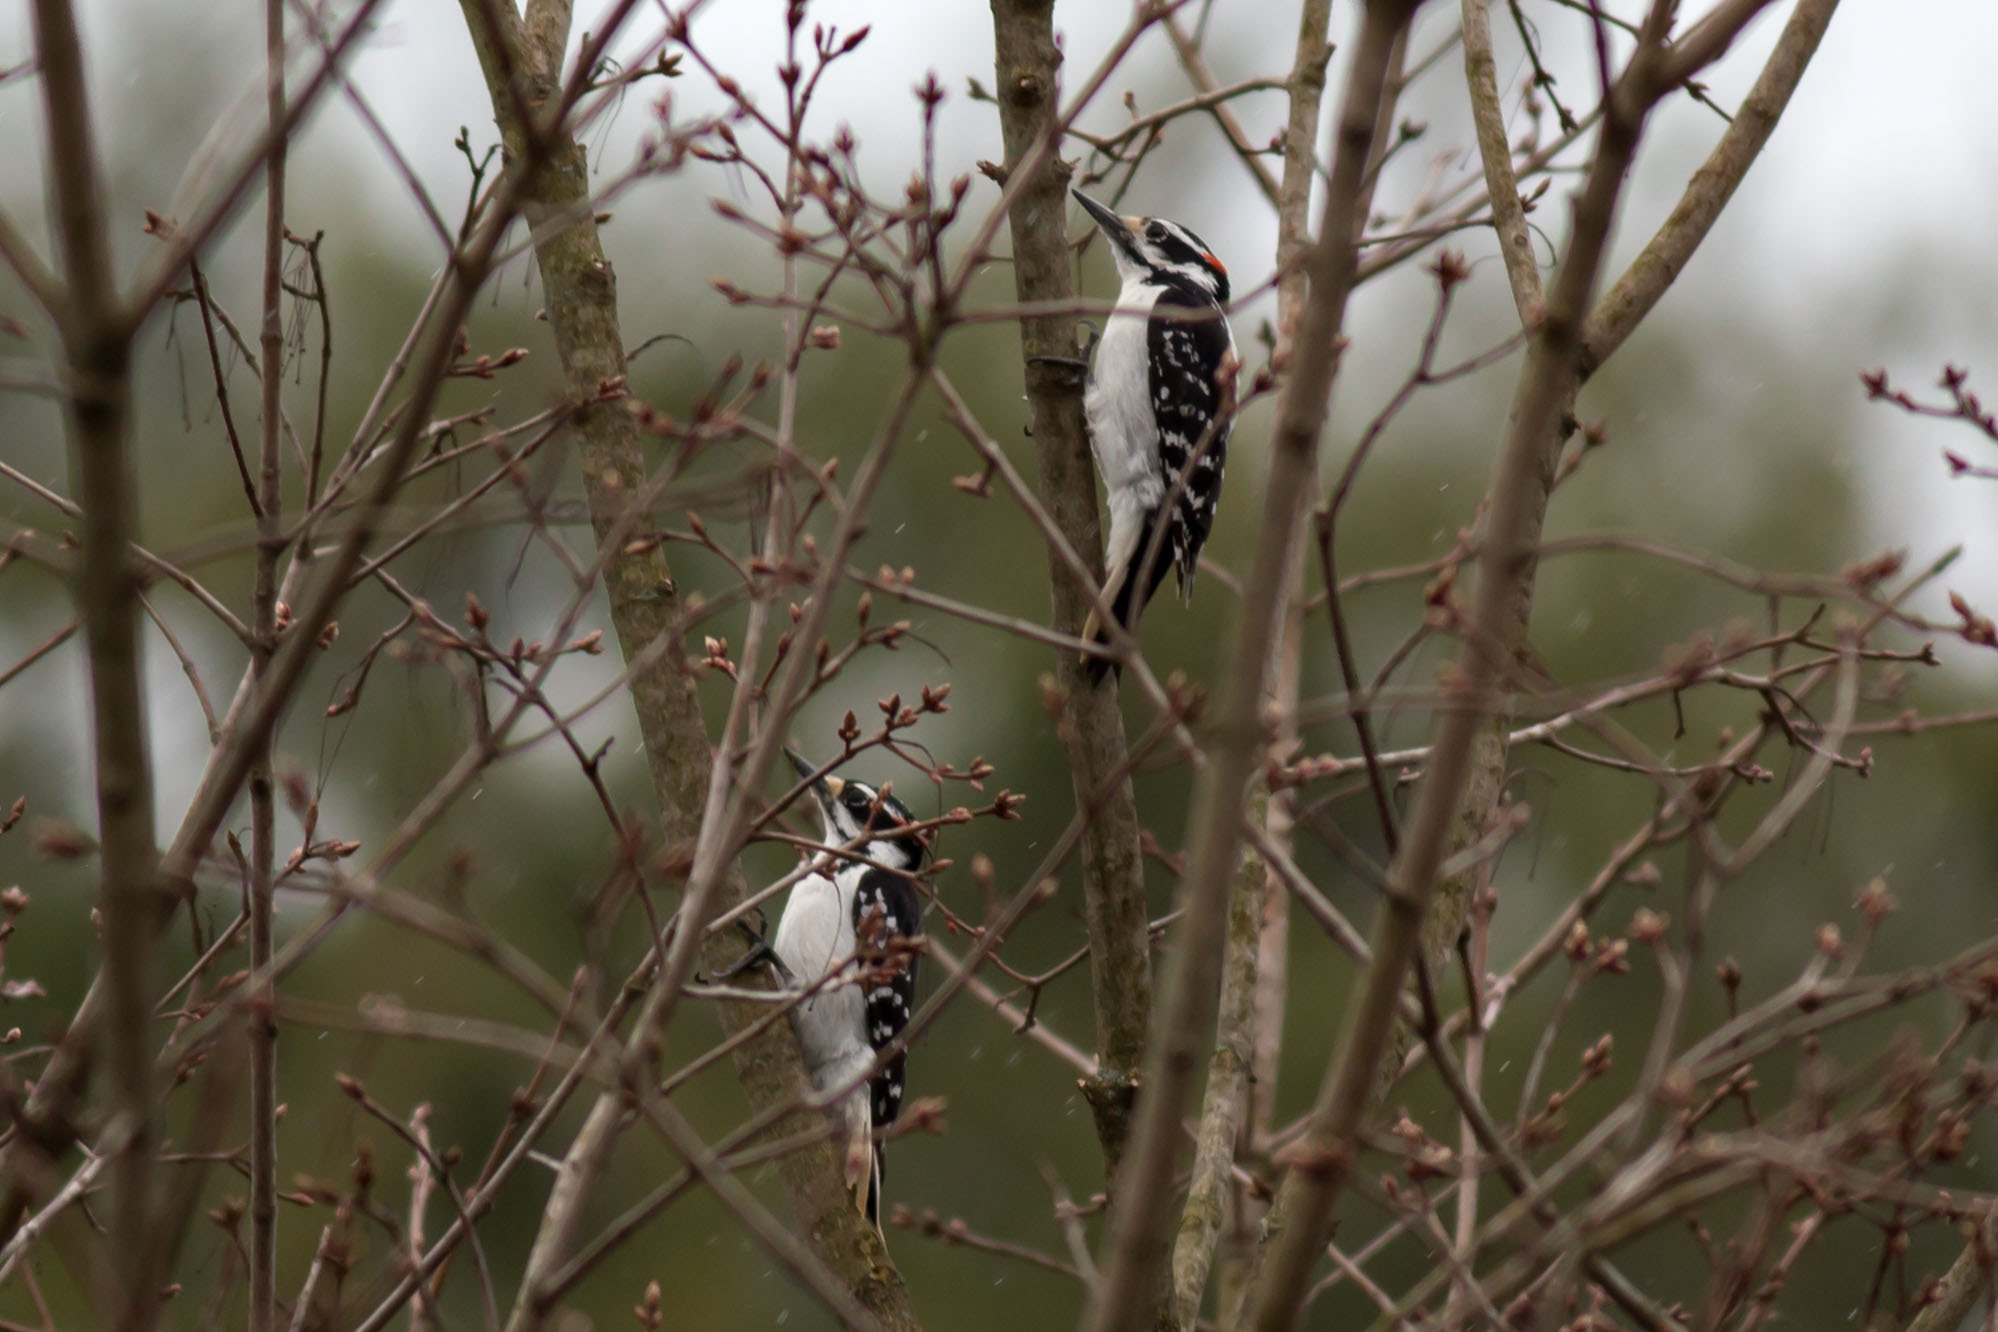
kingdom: Animalia
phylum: Chordata
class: Aves
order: Piciformes
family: Picidae
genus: Leuconotopicus
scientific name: Leuconotopicus villosus
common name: Hairy woodpecker
